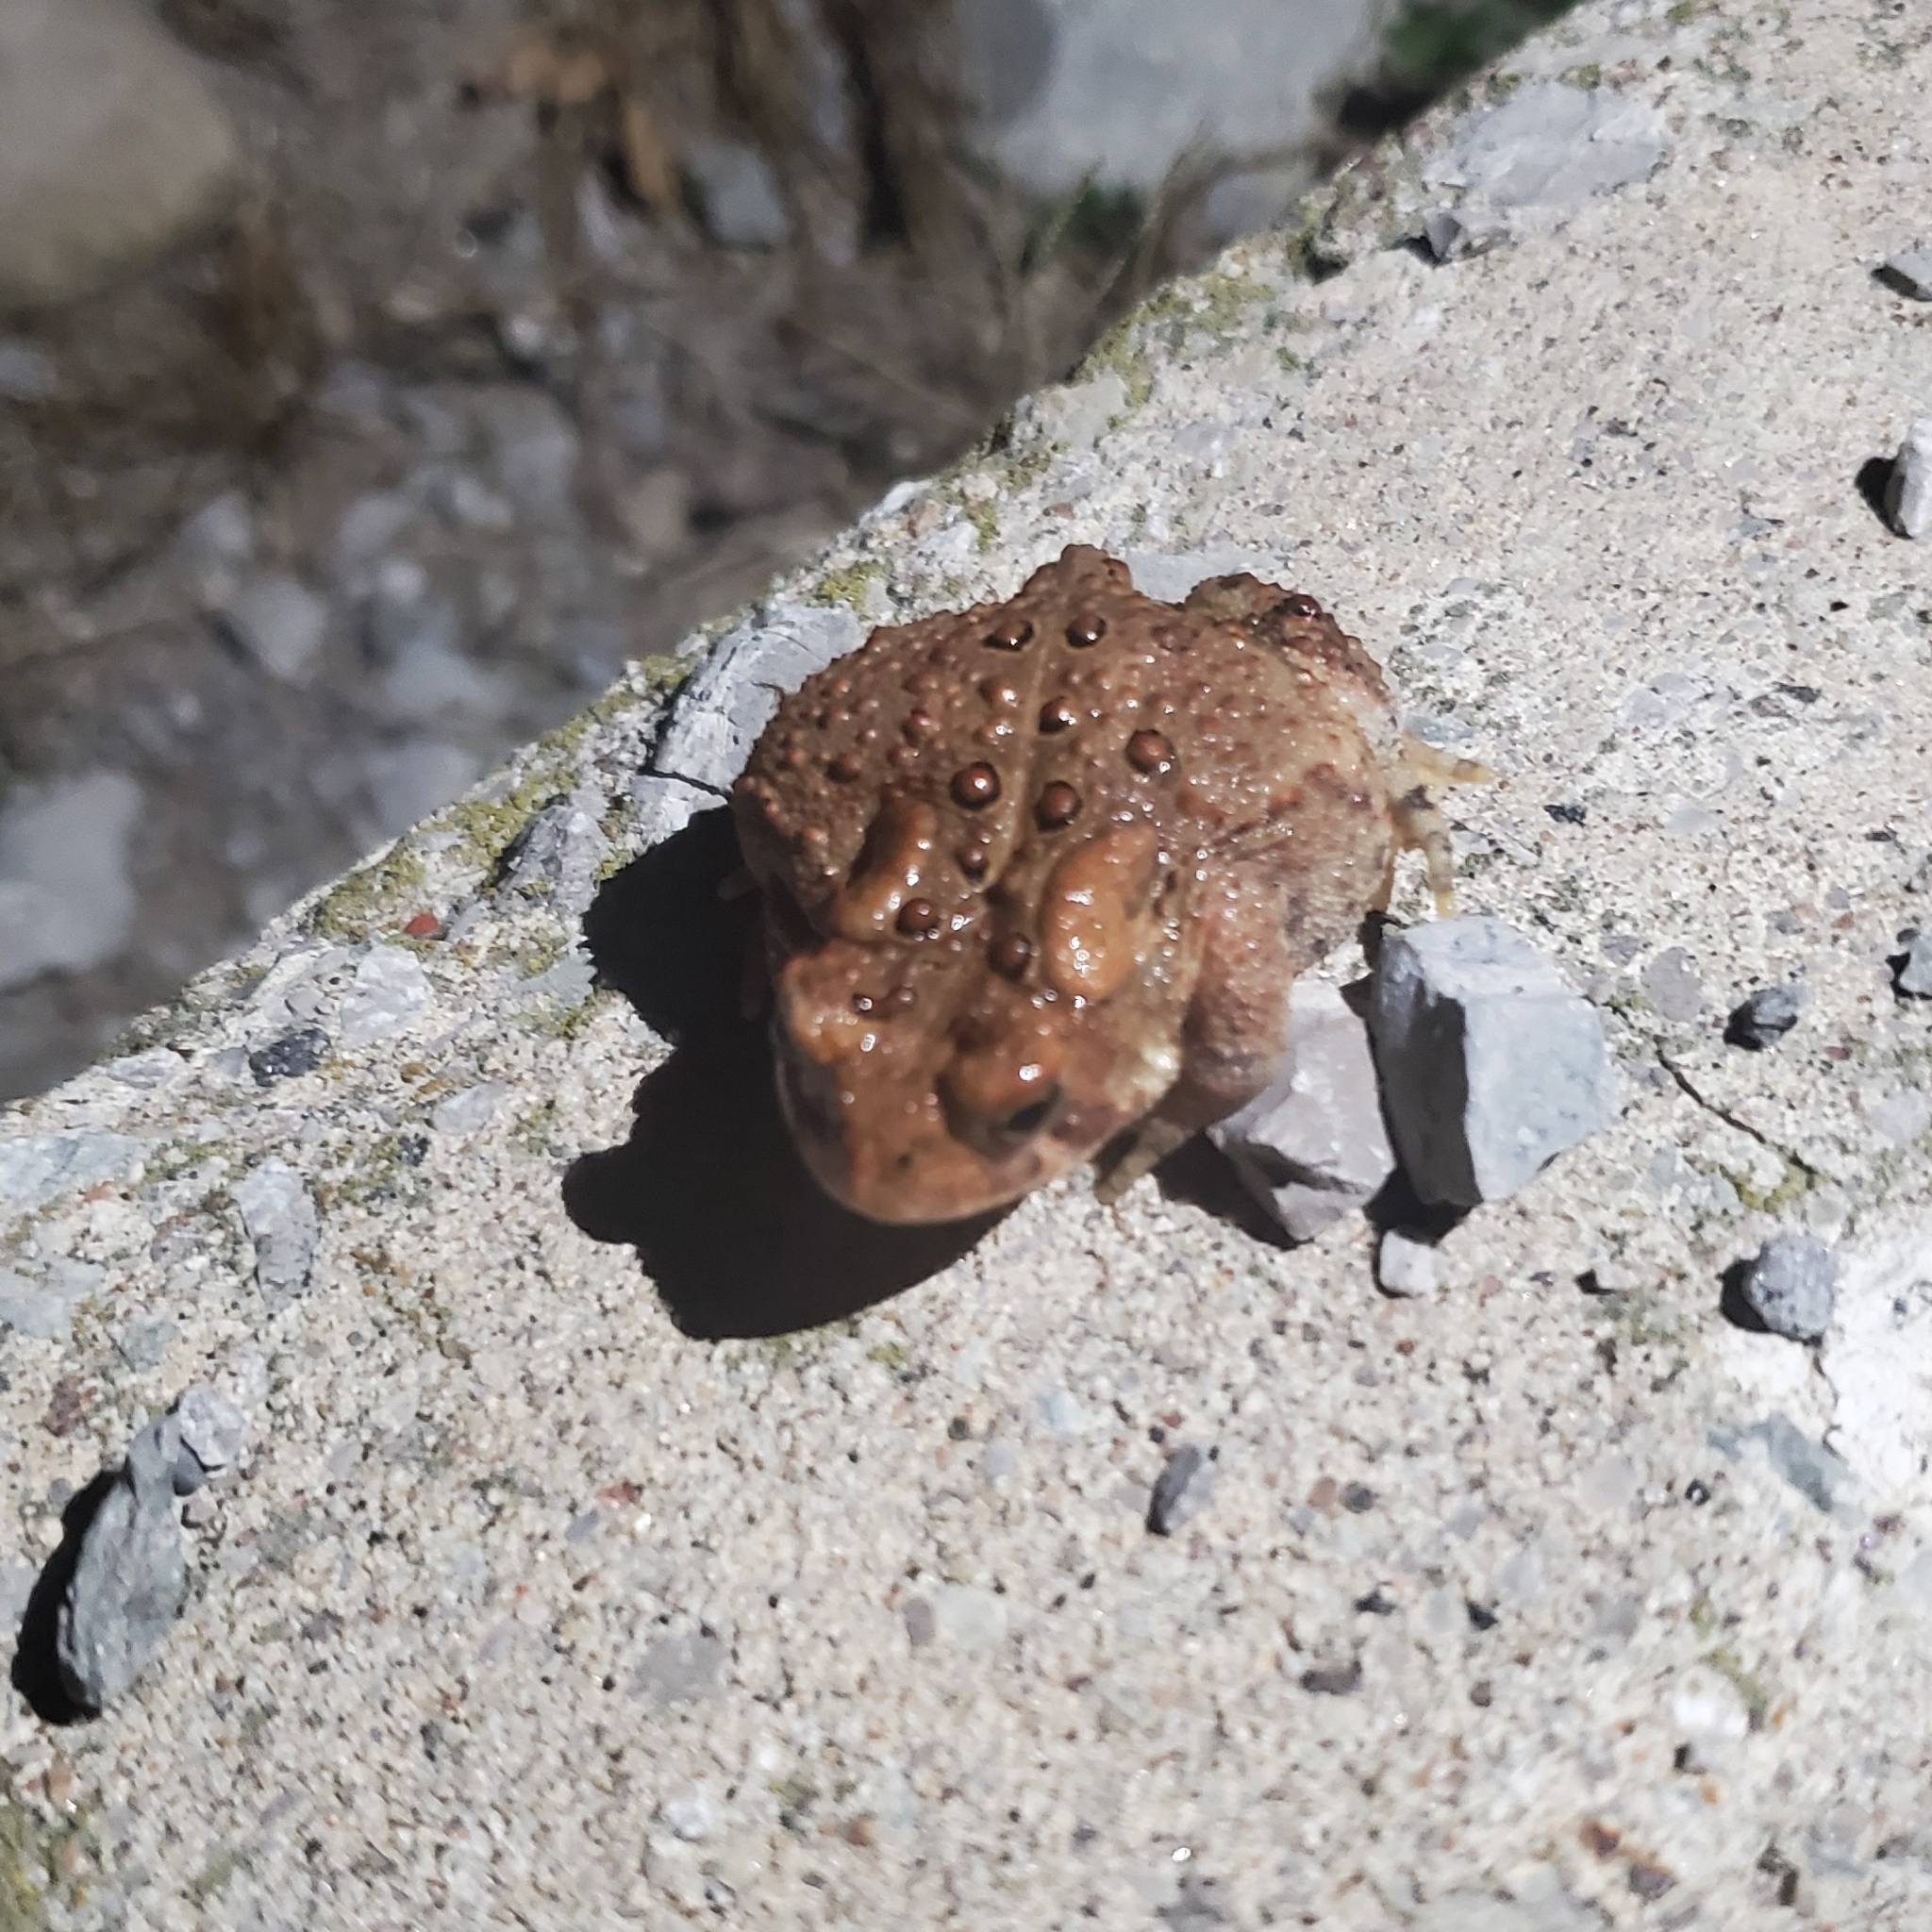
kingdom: Animalia
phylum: Chordata
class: Amphibia
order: Anura
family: Bufonidae
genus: Anaxyrus
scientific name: Anaxyrus americanus
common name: American toad
